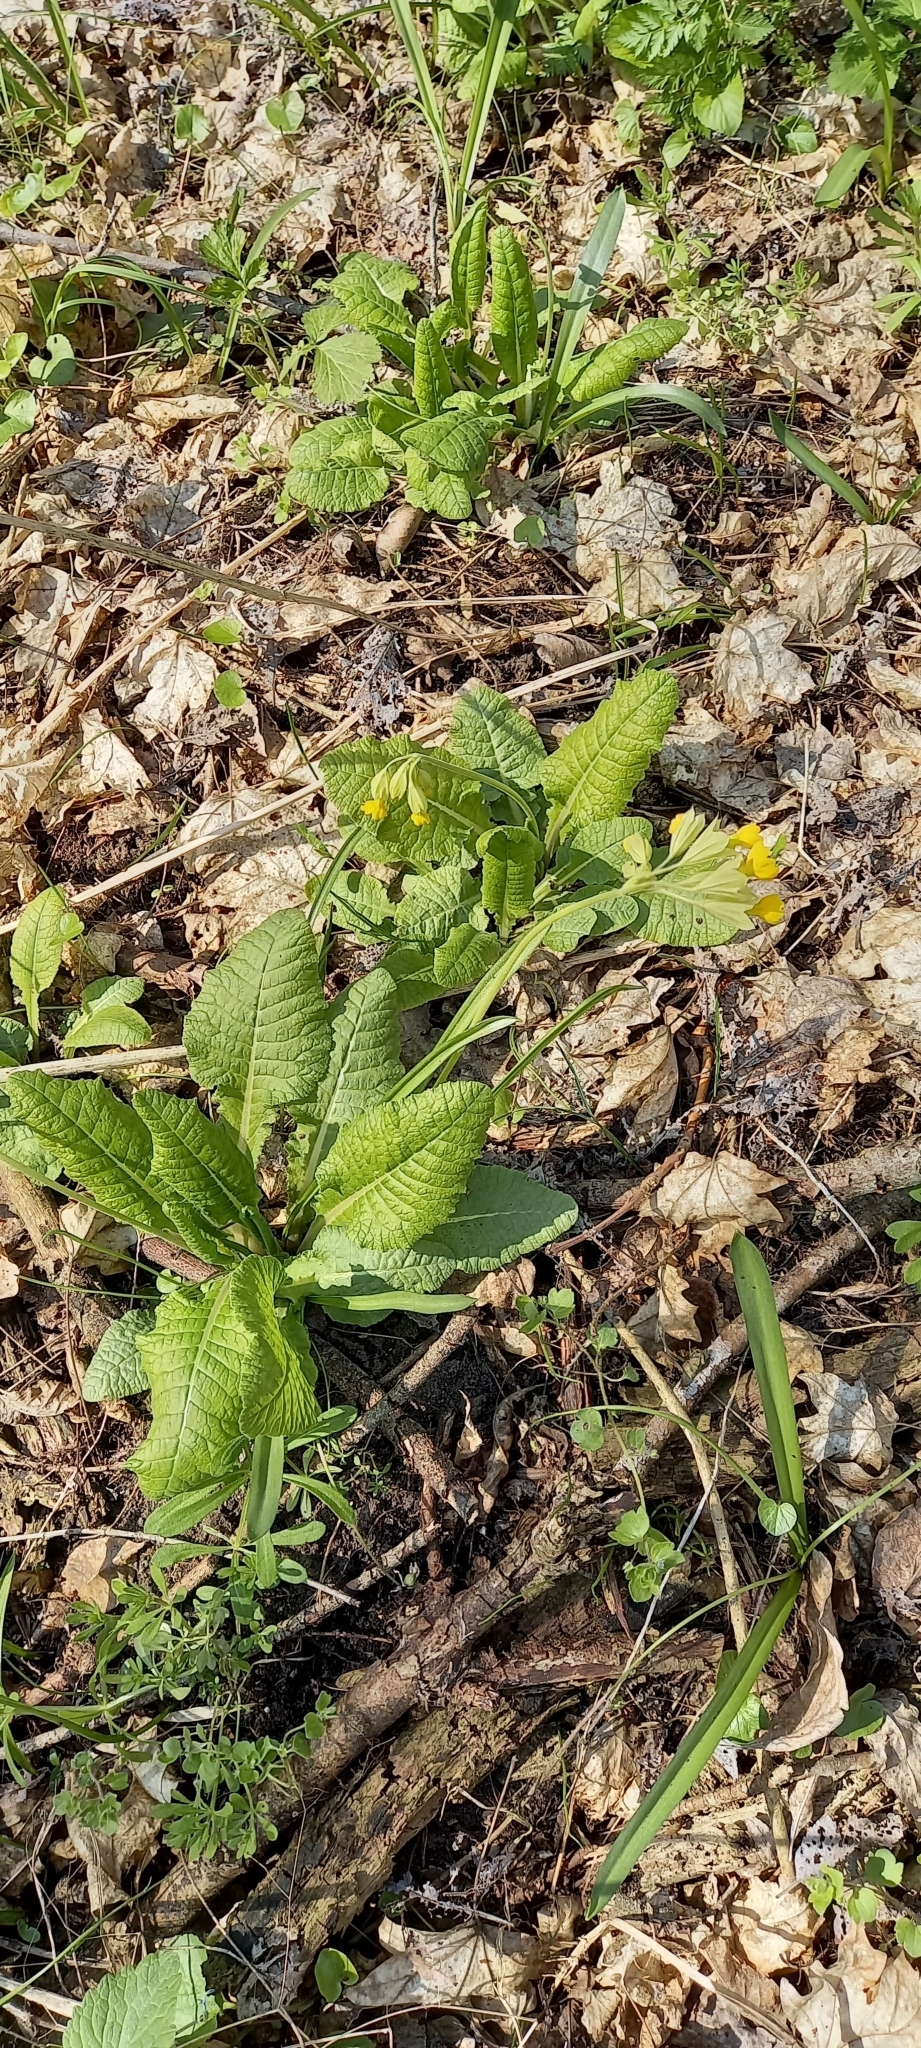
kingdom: Plantae
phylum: Tracheophyta
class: Magnoliopsida
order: Ericales
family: Primulaceae
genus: Primula
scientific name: Primula veris
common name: Cowslip
